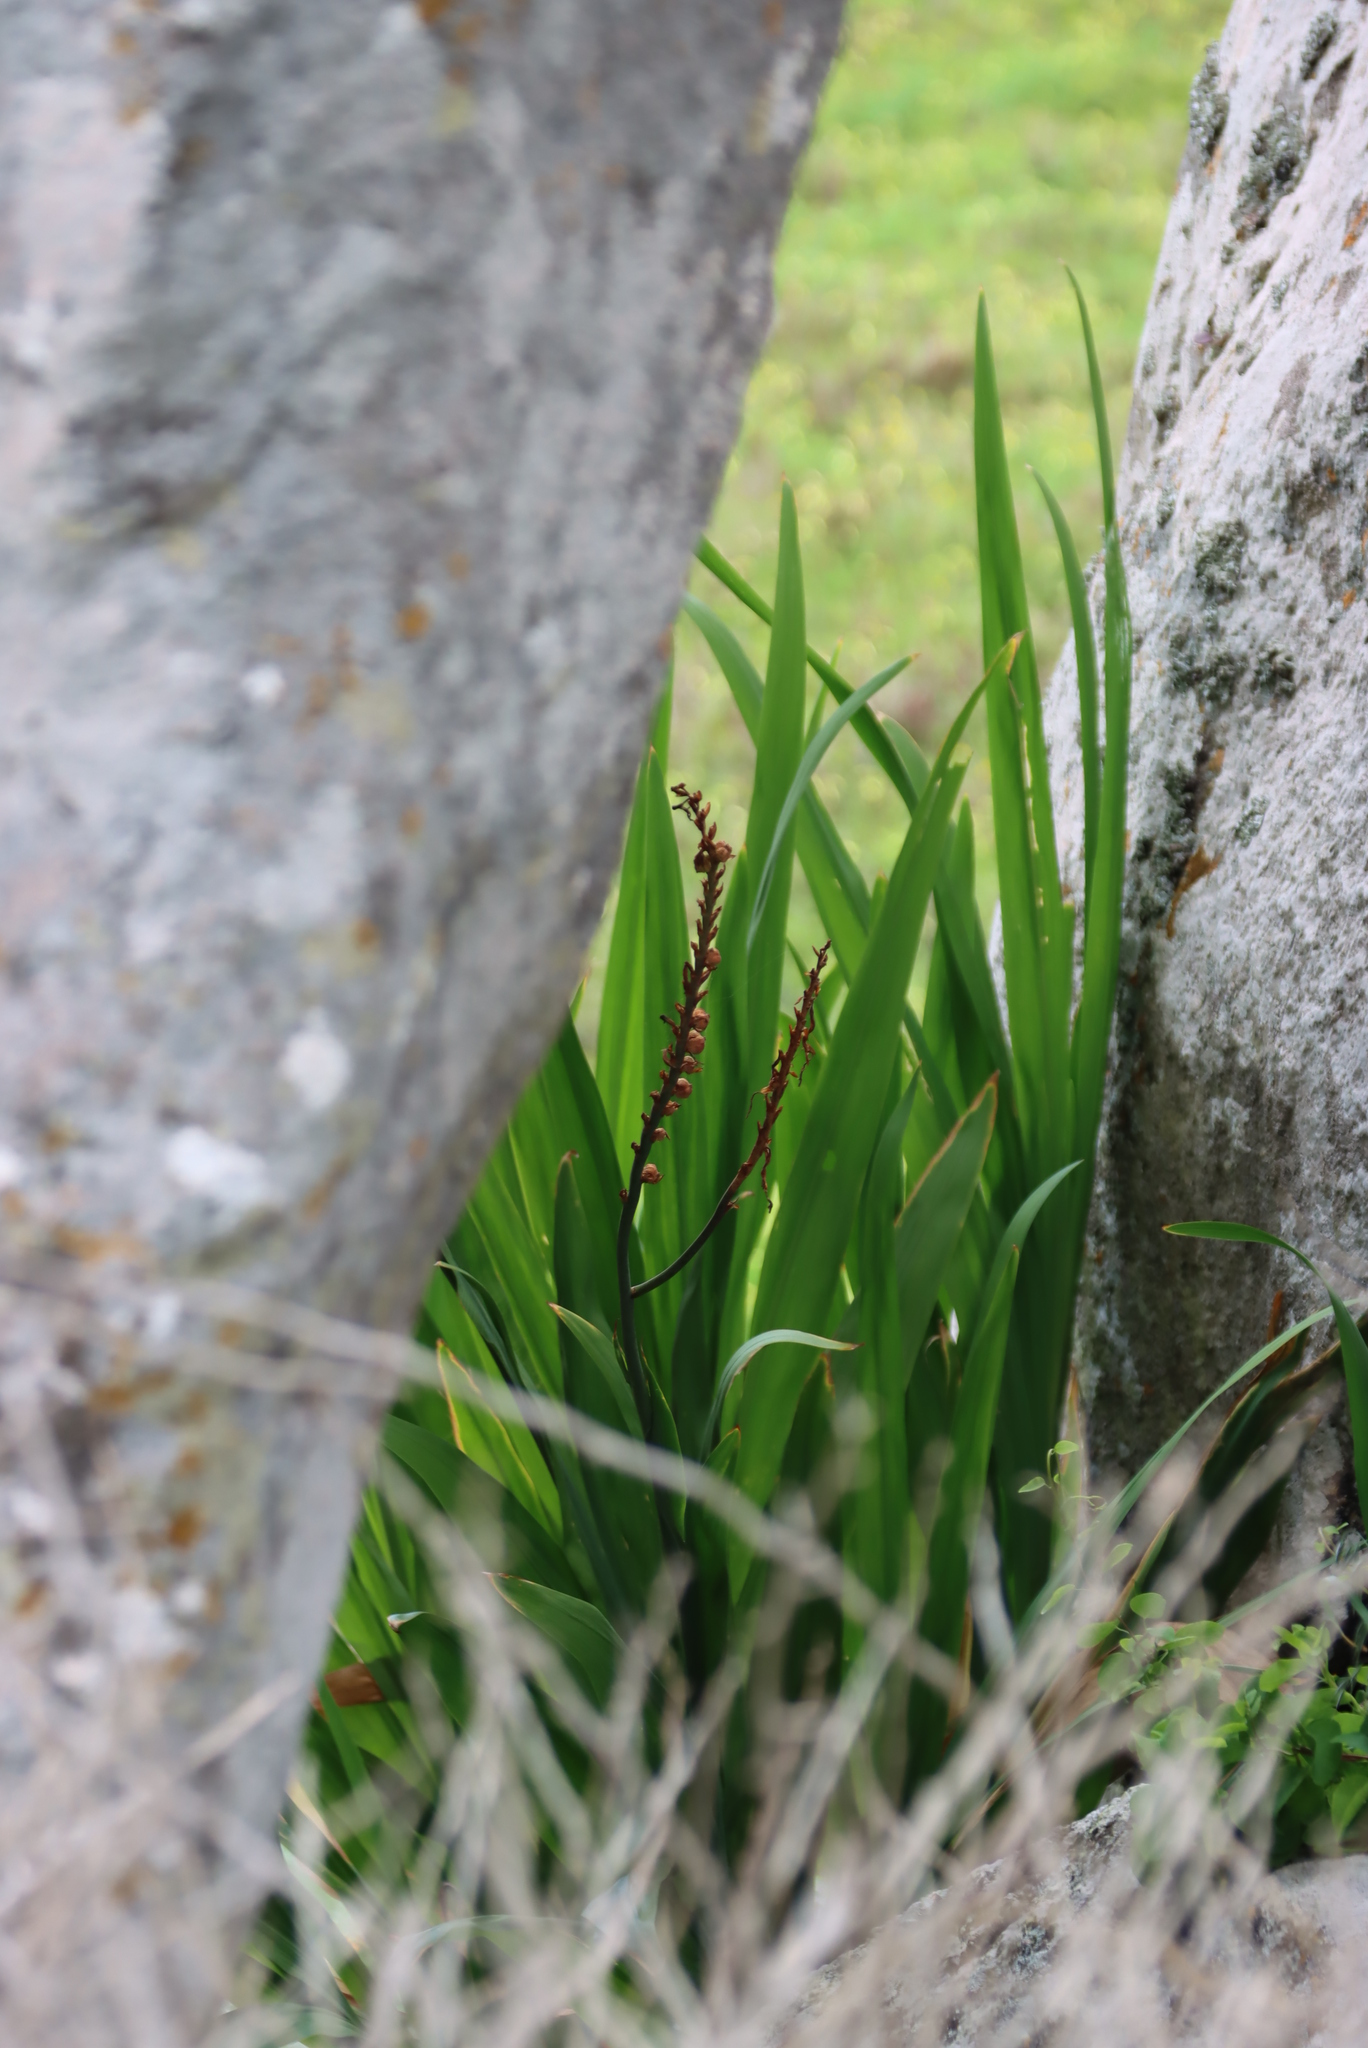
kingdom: Plantae
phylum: Tracheophyta
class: Liliopsida
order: Asparagales
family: Iridaceae
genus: Chasmanthe
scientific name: Chasmanthe floribunda
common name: African cornflag
